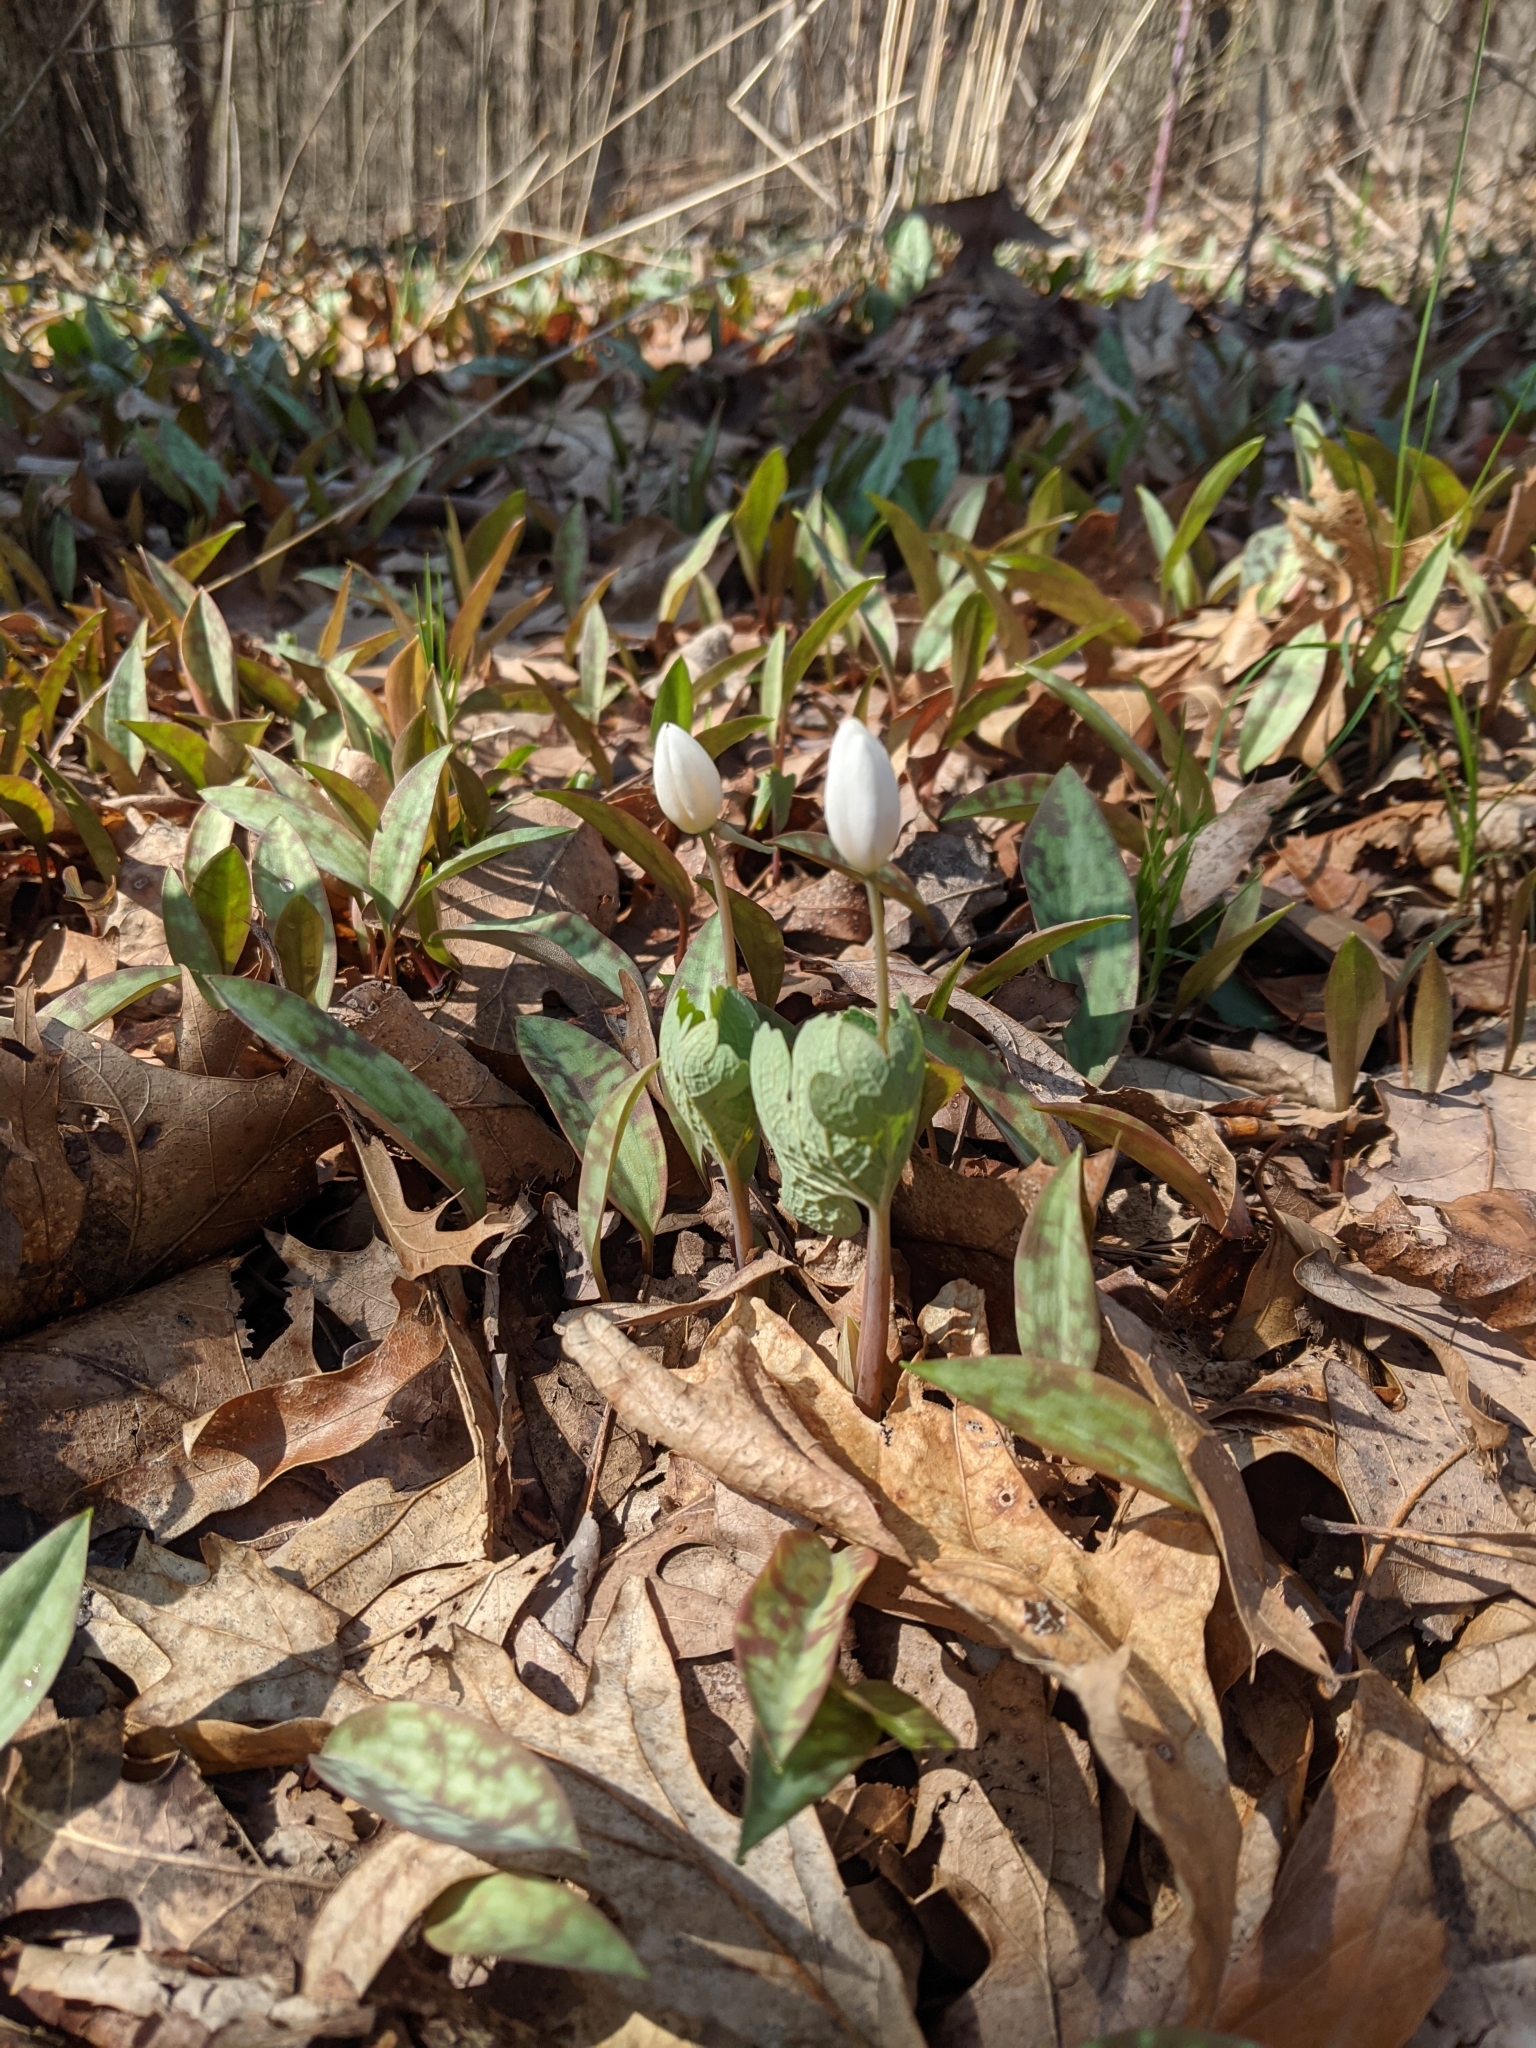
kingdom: Plantae
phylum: Tracheophyta
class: Magnoliopsida
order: Ranunculales
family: Papaveraceae
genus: Sanguinaria
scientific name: Sanguinaria canadensis
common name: Bloodroot
